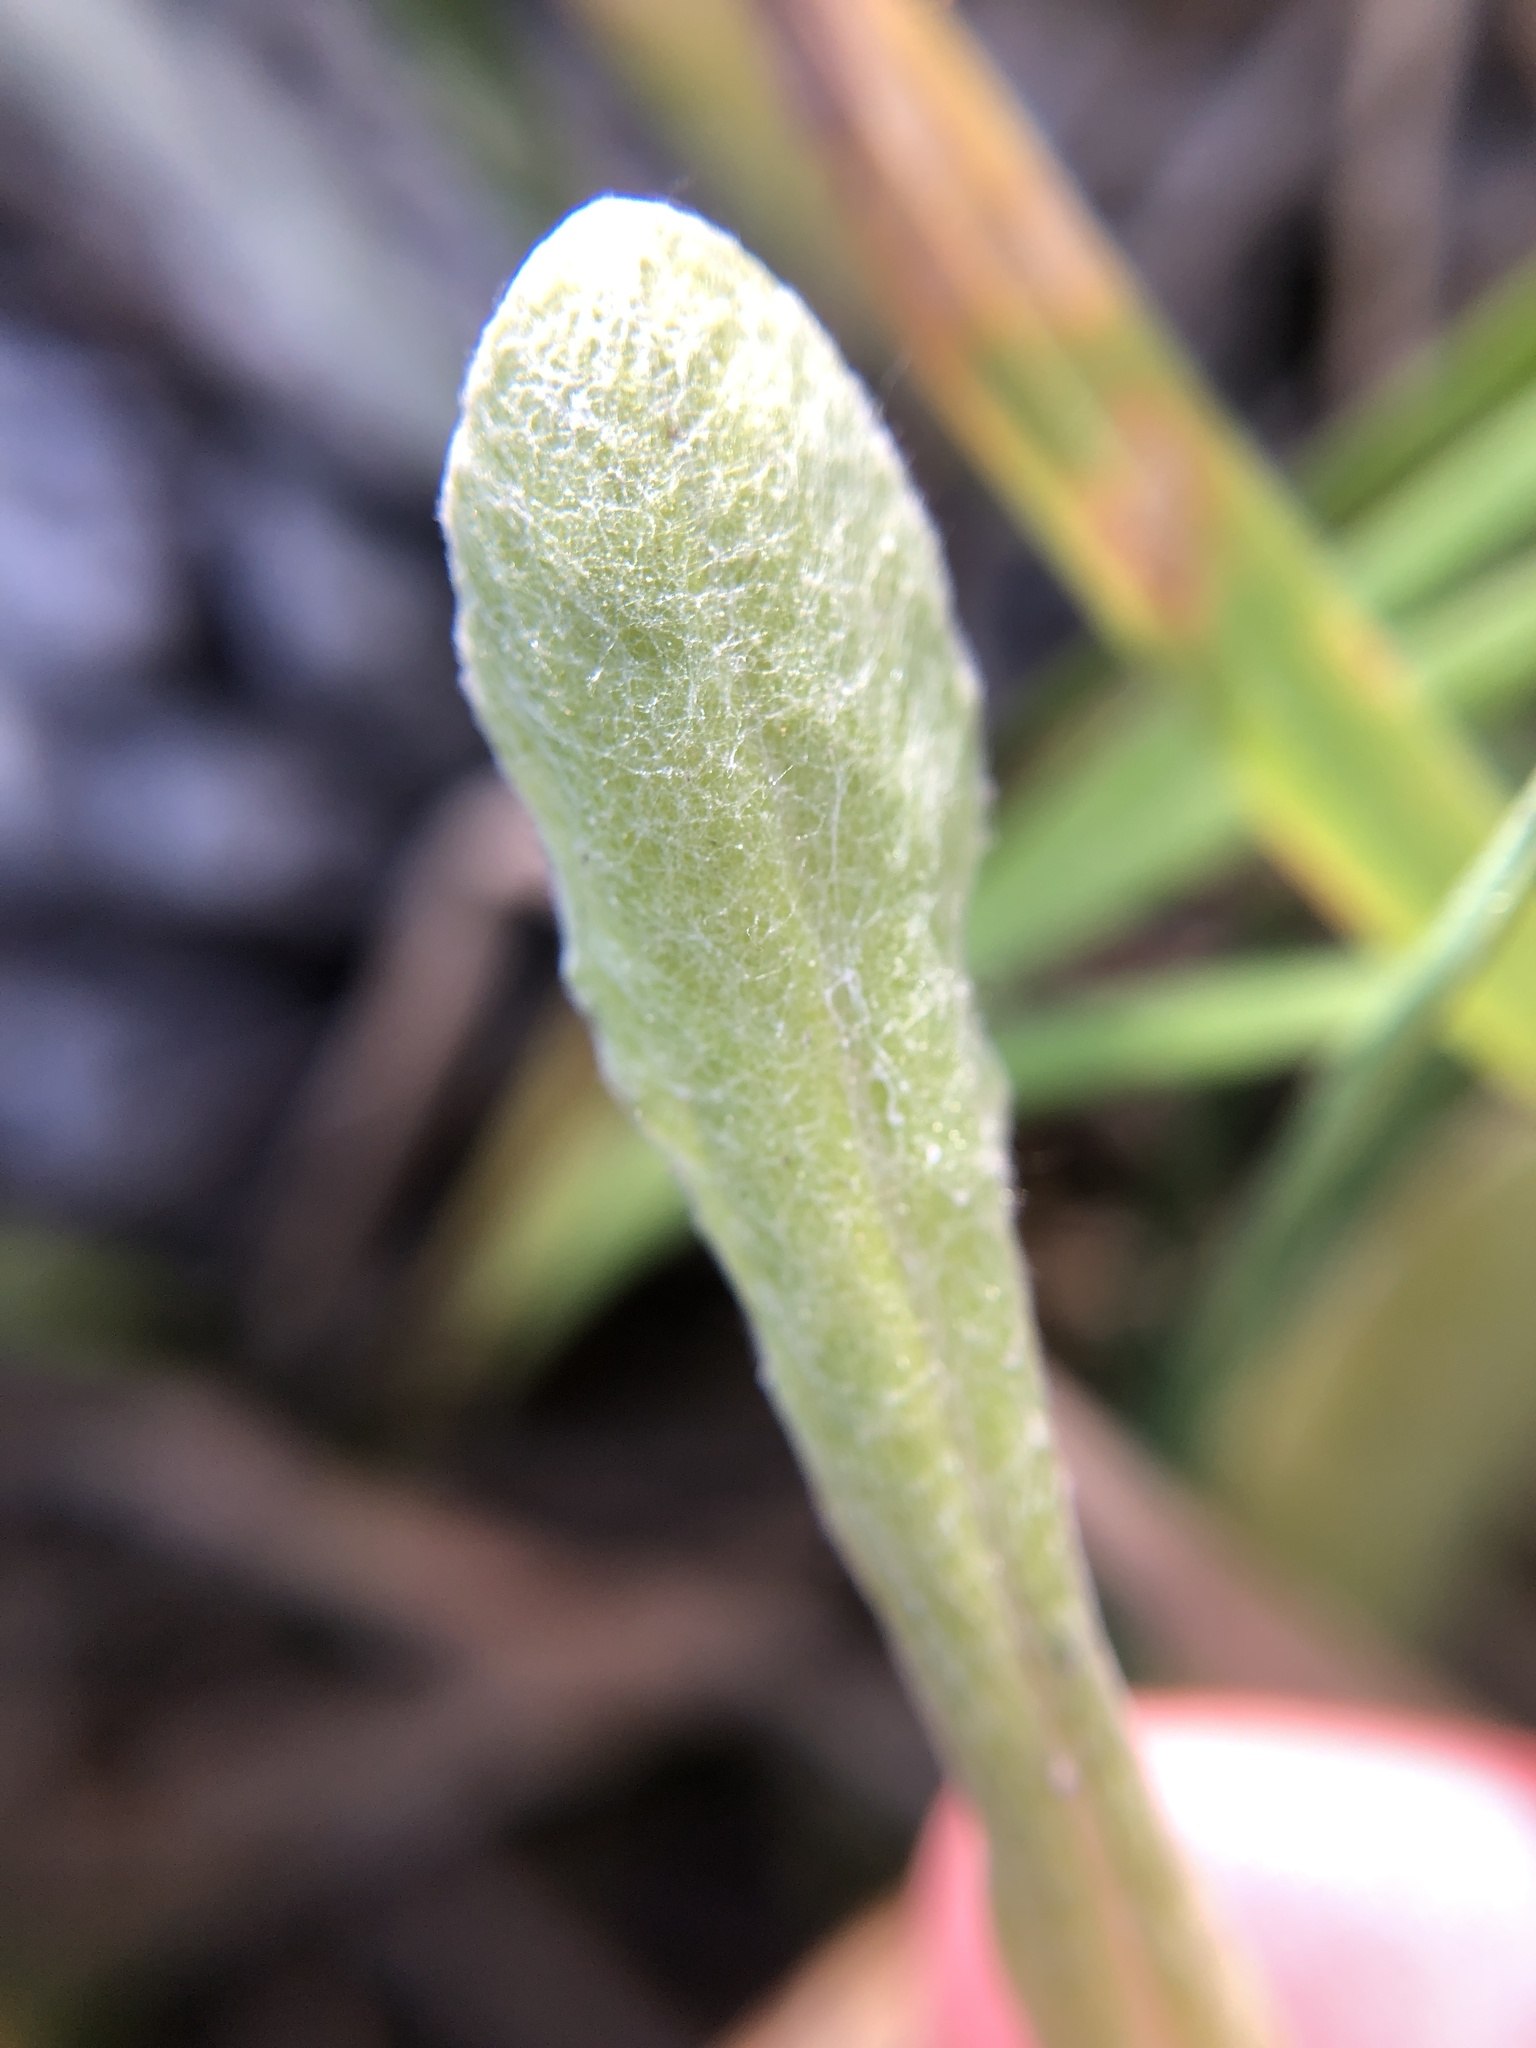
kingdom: Plantae
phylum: Tracheophyta
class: Magnoliopsida
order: Asterales
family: Asteraceae
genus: Helichrysum
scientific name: Helichrysum luteoalbum
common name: Daisy
